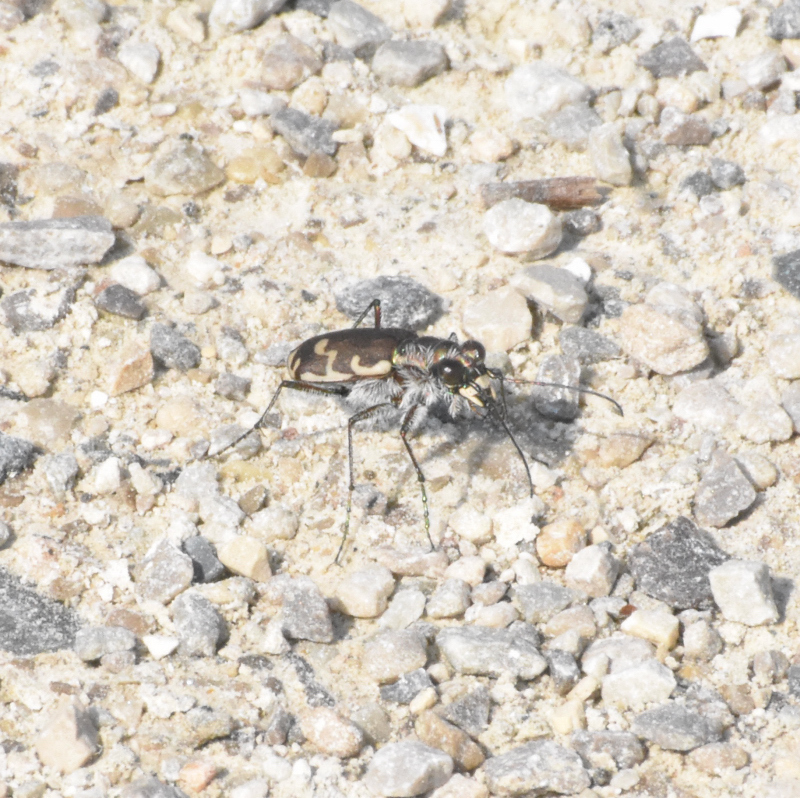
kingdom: Animalia
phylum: Arthropoda
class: Insecta
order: Coleoptera
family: Carabidae
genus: Cicindela
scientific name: Cicindela repanda
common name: Bronzed tiger beetle
